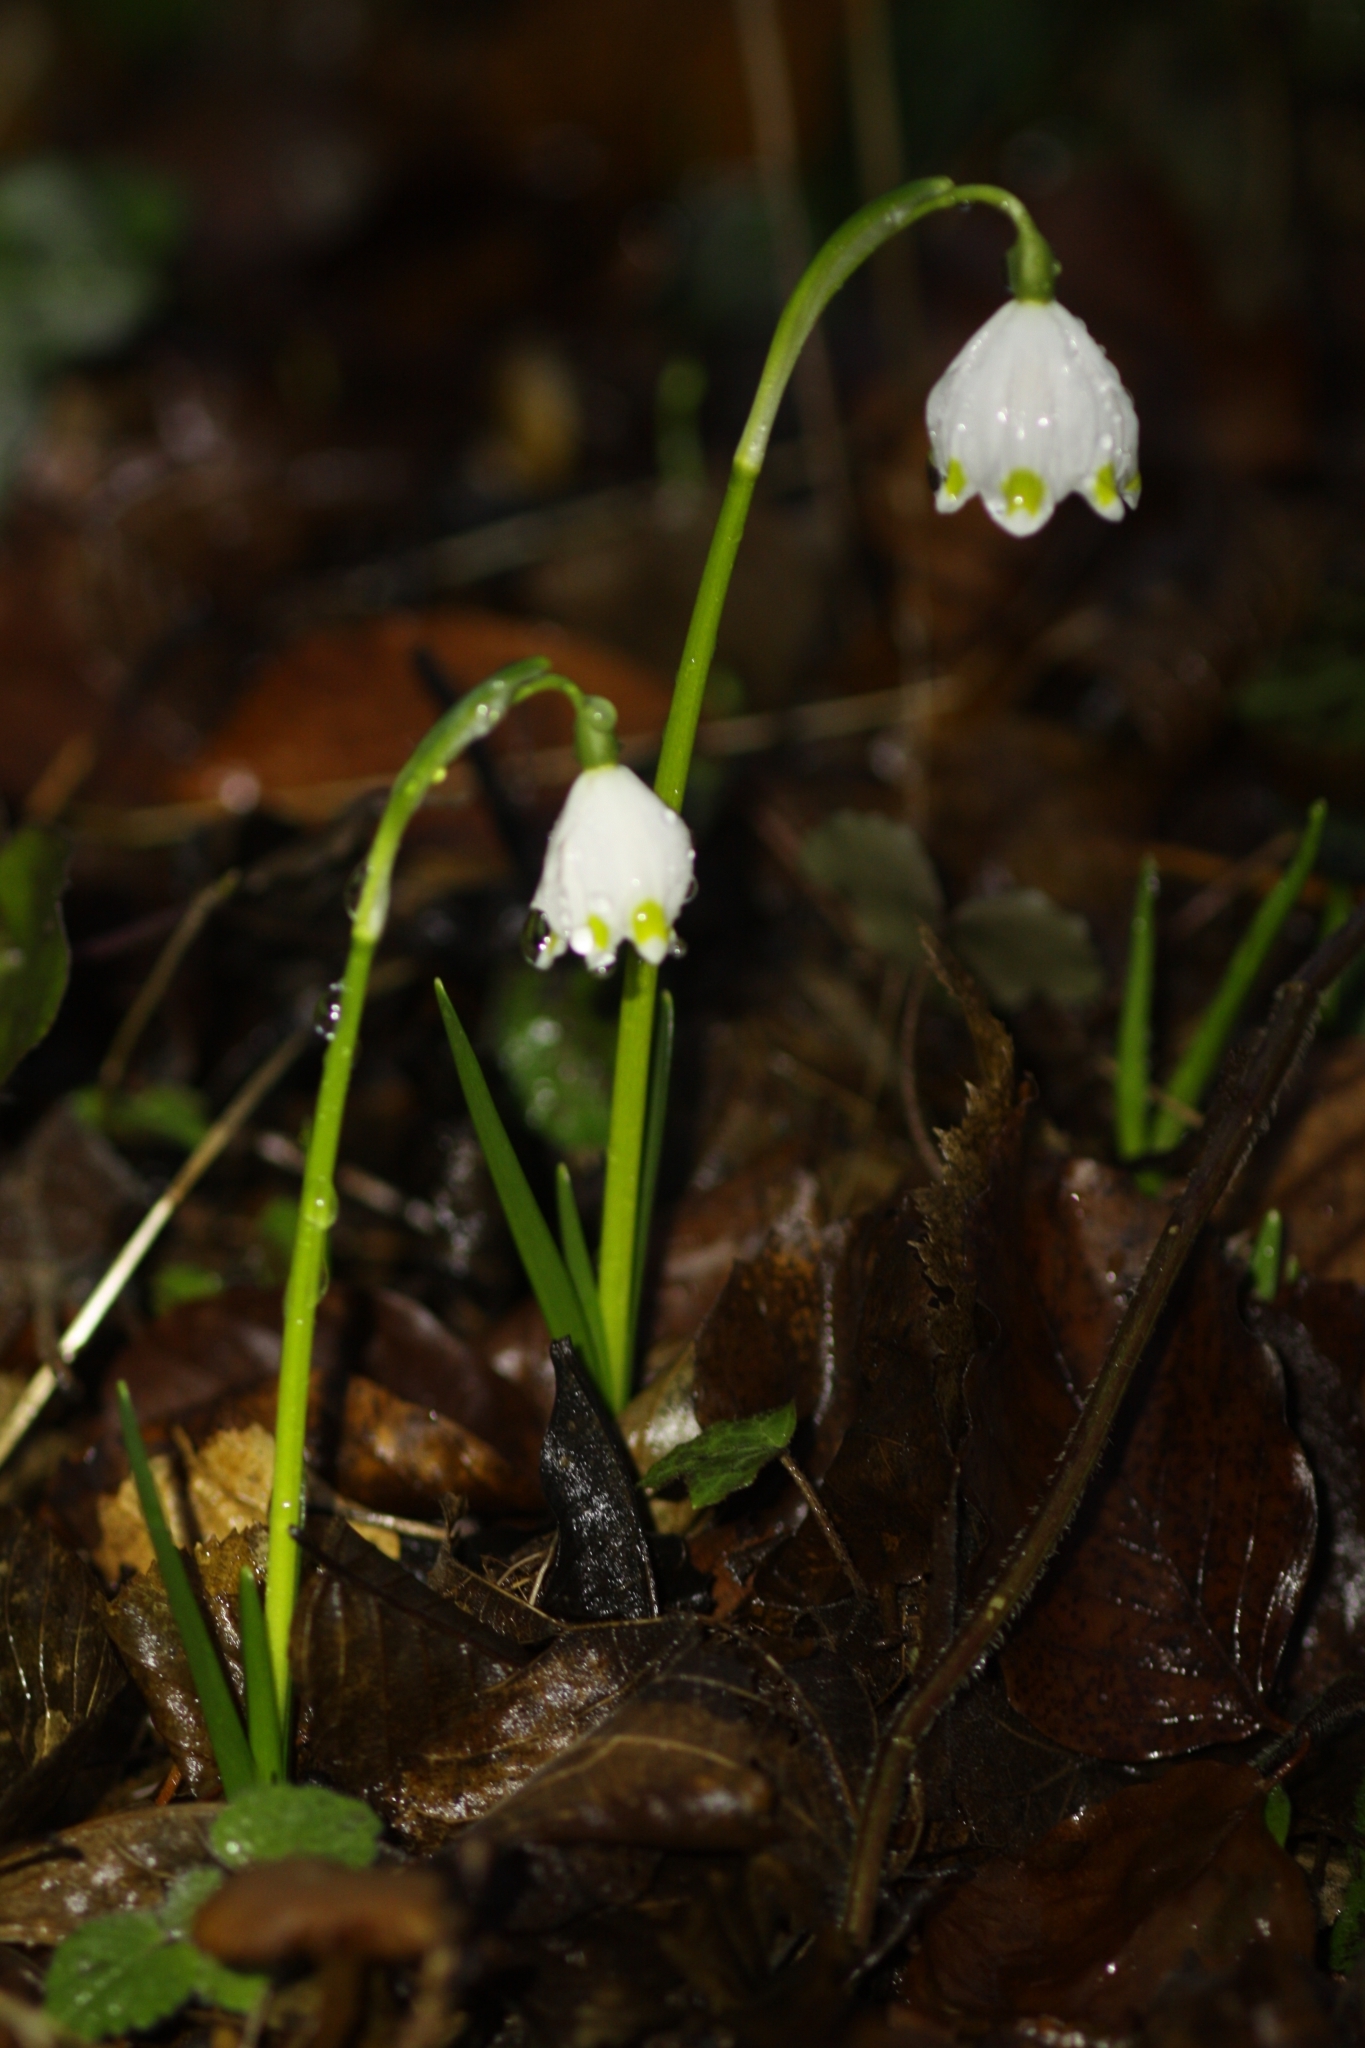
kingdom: Plantae
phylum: Tracheophyta
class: Liliopsida
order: Asparagales
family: Amaryllidaceae
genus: Leucojum
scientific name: Leucojum vernum
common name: Spring snowflake
